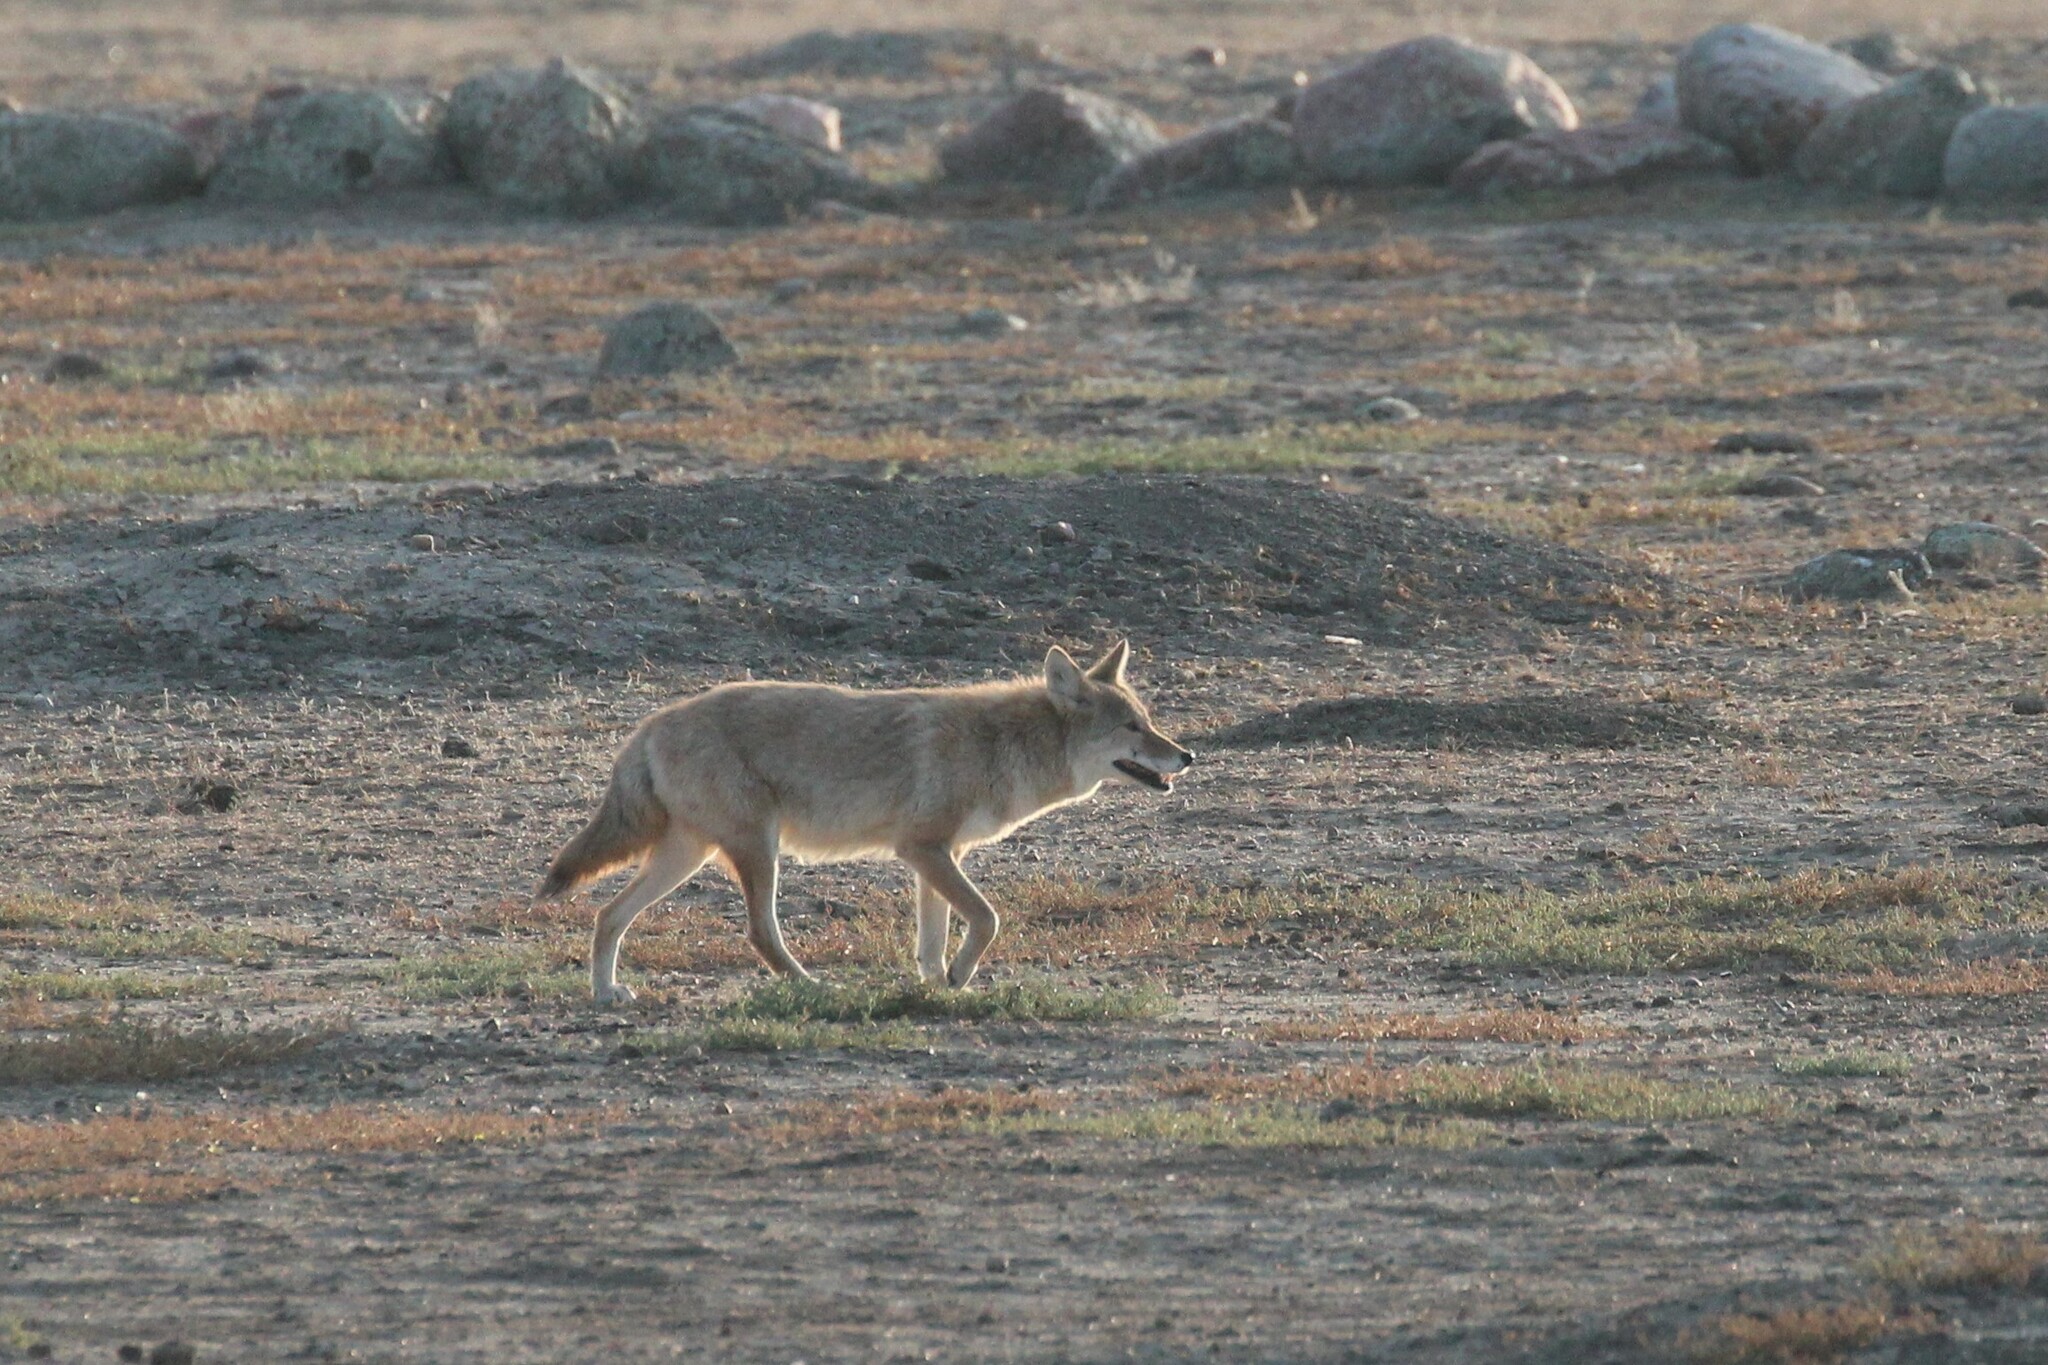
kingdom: Animalia
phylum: Chordata
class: Mammalia
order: Carnivora
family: Canidae
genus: Canis
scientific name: Canis latrans
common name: Coyote
